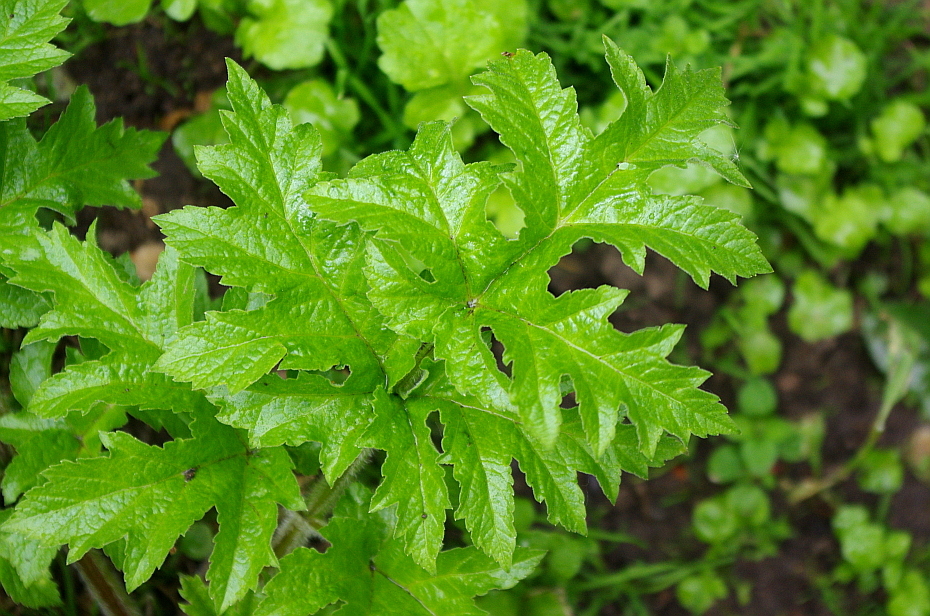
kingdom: Plantae
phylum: Tracheophyta
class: Magnoliopsida
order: Apiales
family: Apiaceae
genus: Heracleum
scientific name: Heracleum sphondylium
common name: Hogweed
